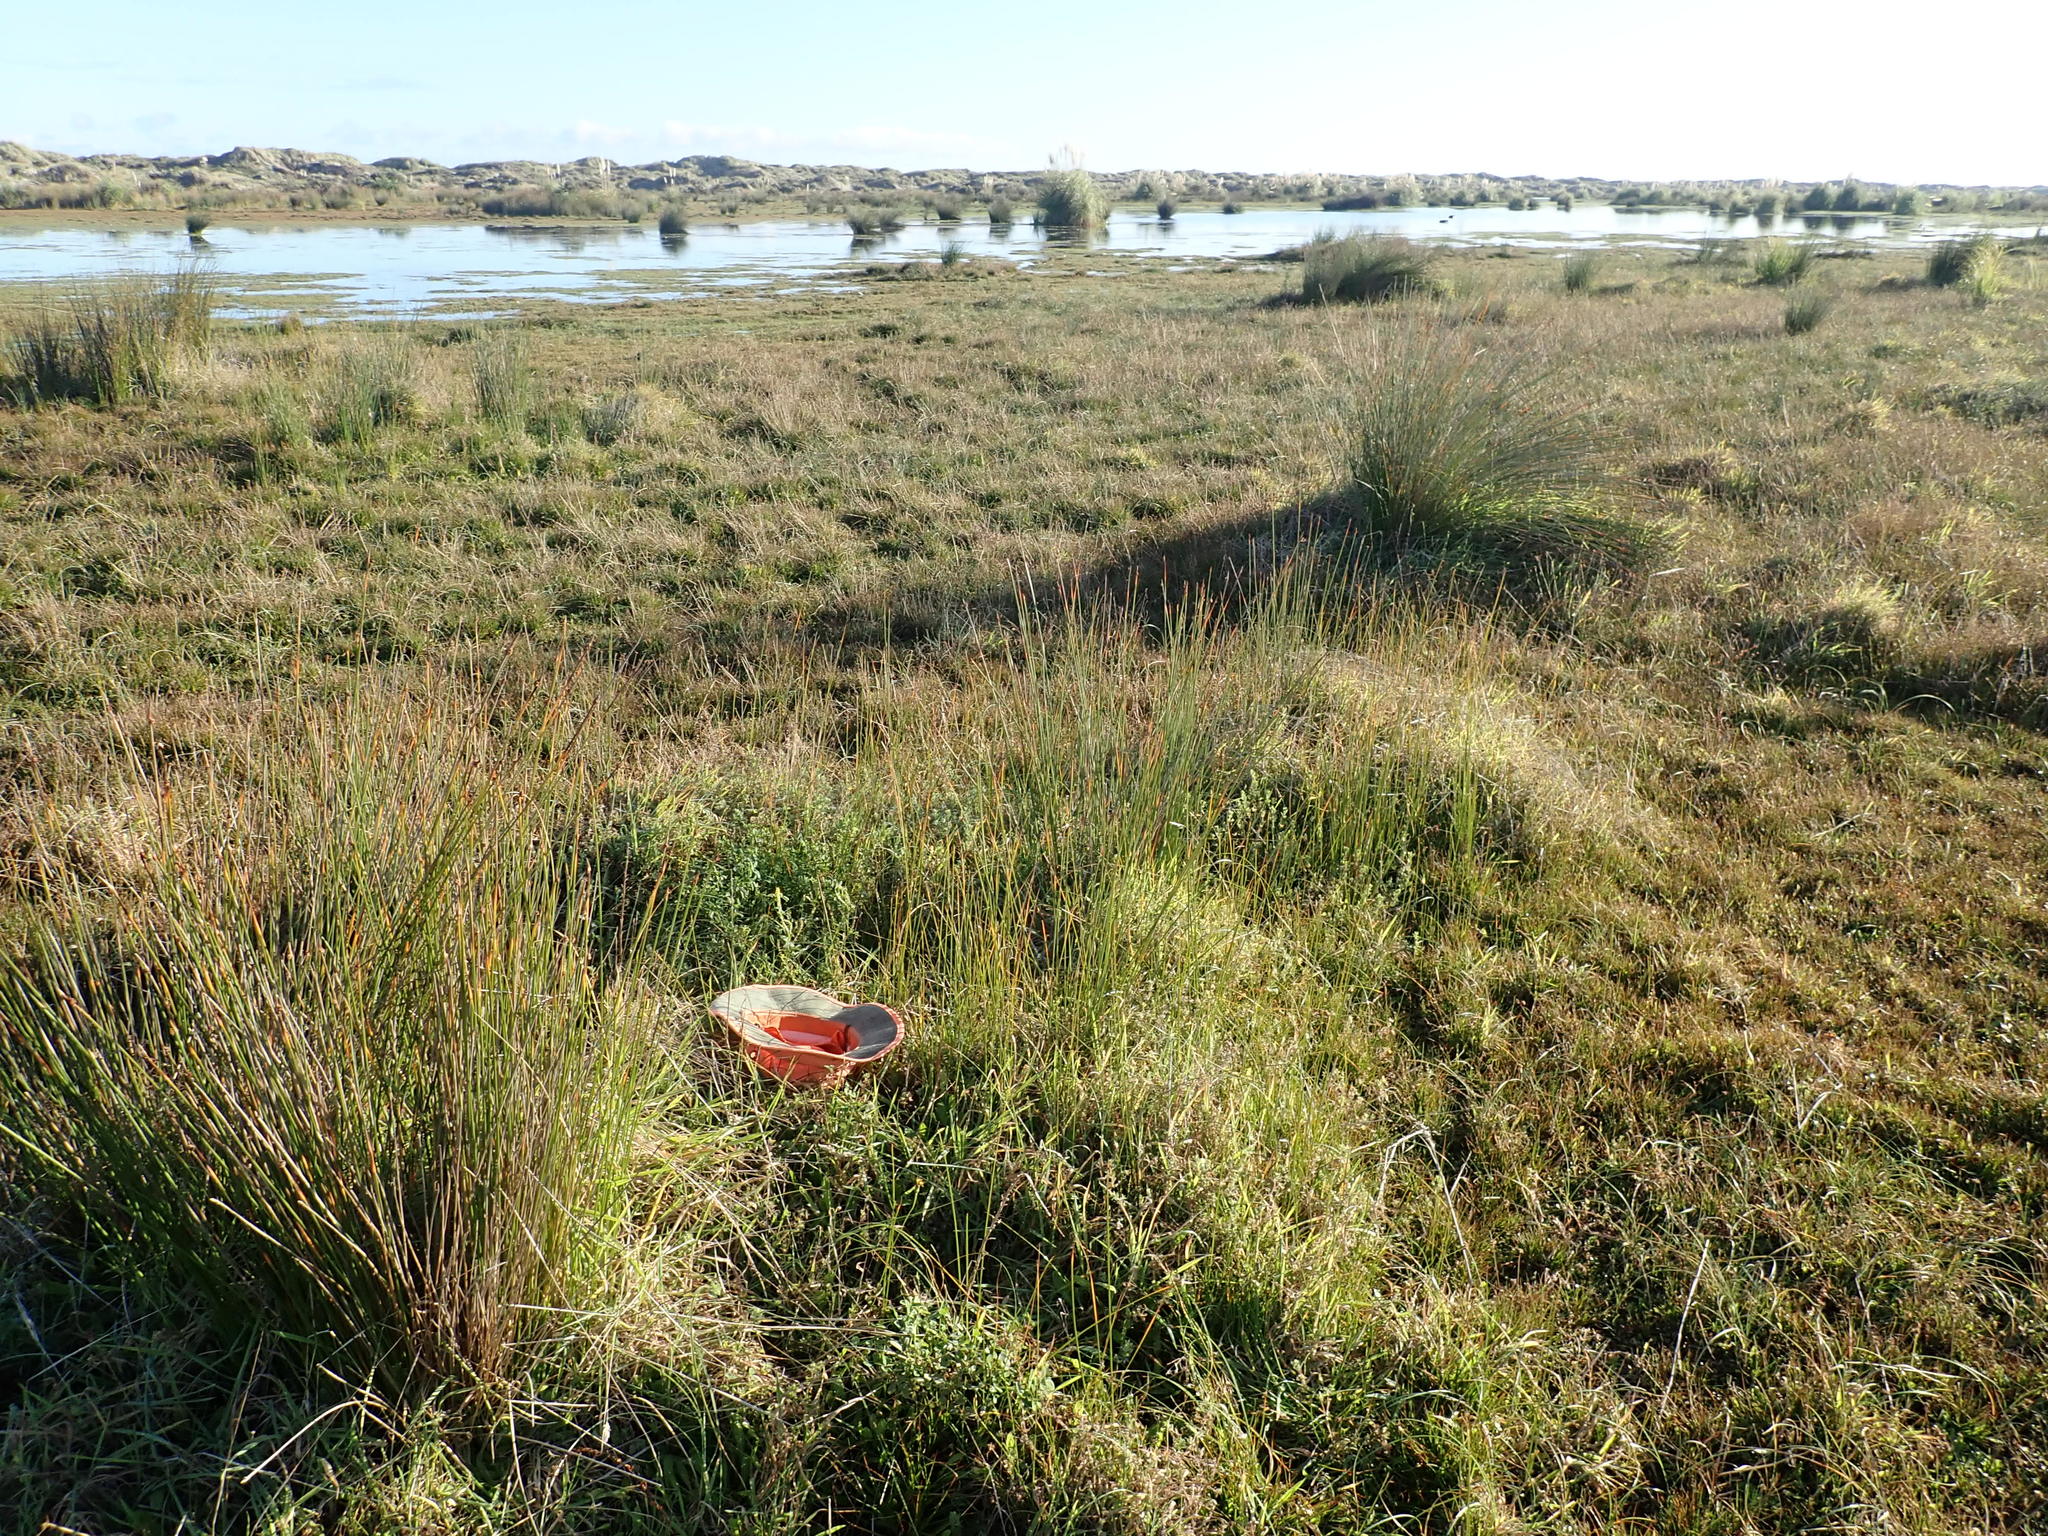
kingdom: Plantae
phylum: Tracheophyta
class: Magnoliopsida
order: Fabales
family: Fabaceae
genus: Melilotus
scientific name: Melilotus indicus
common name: Small melilot
